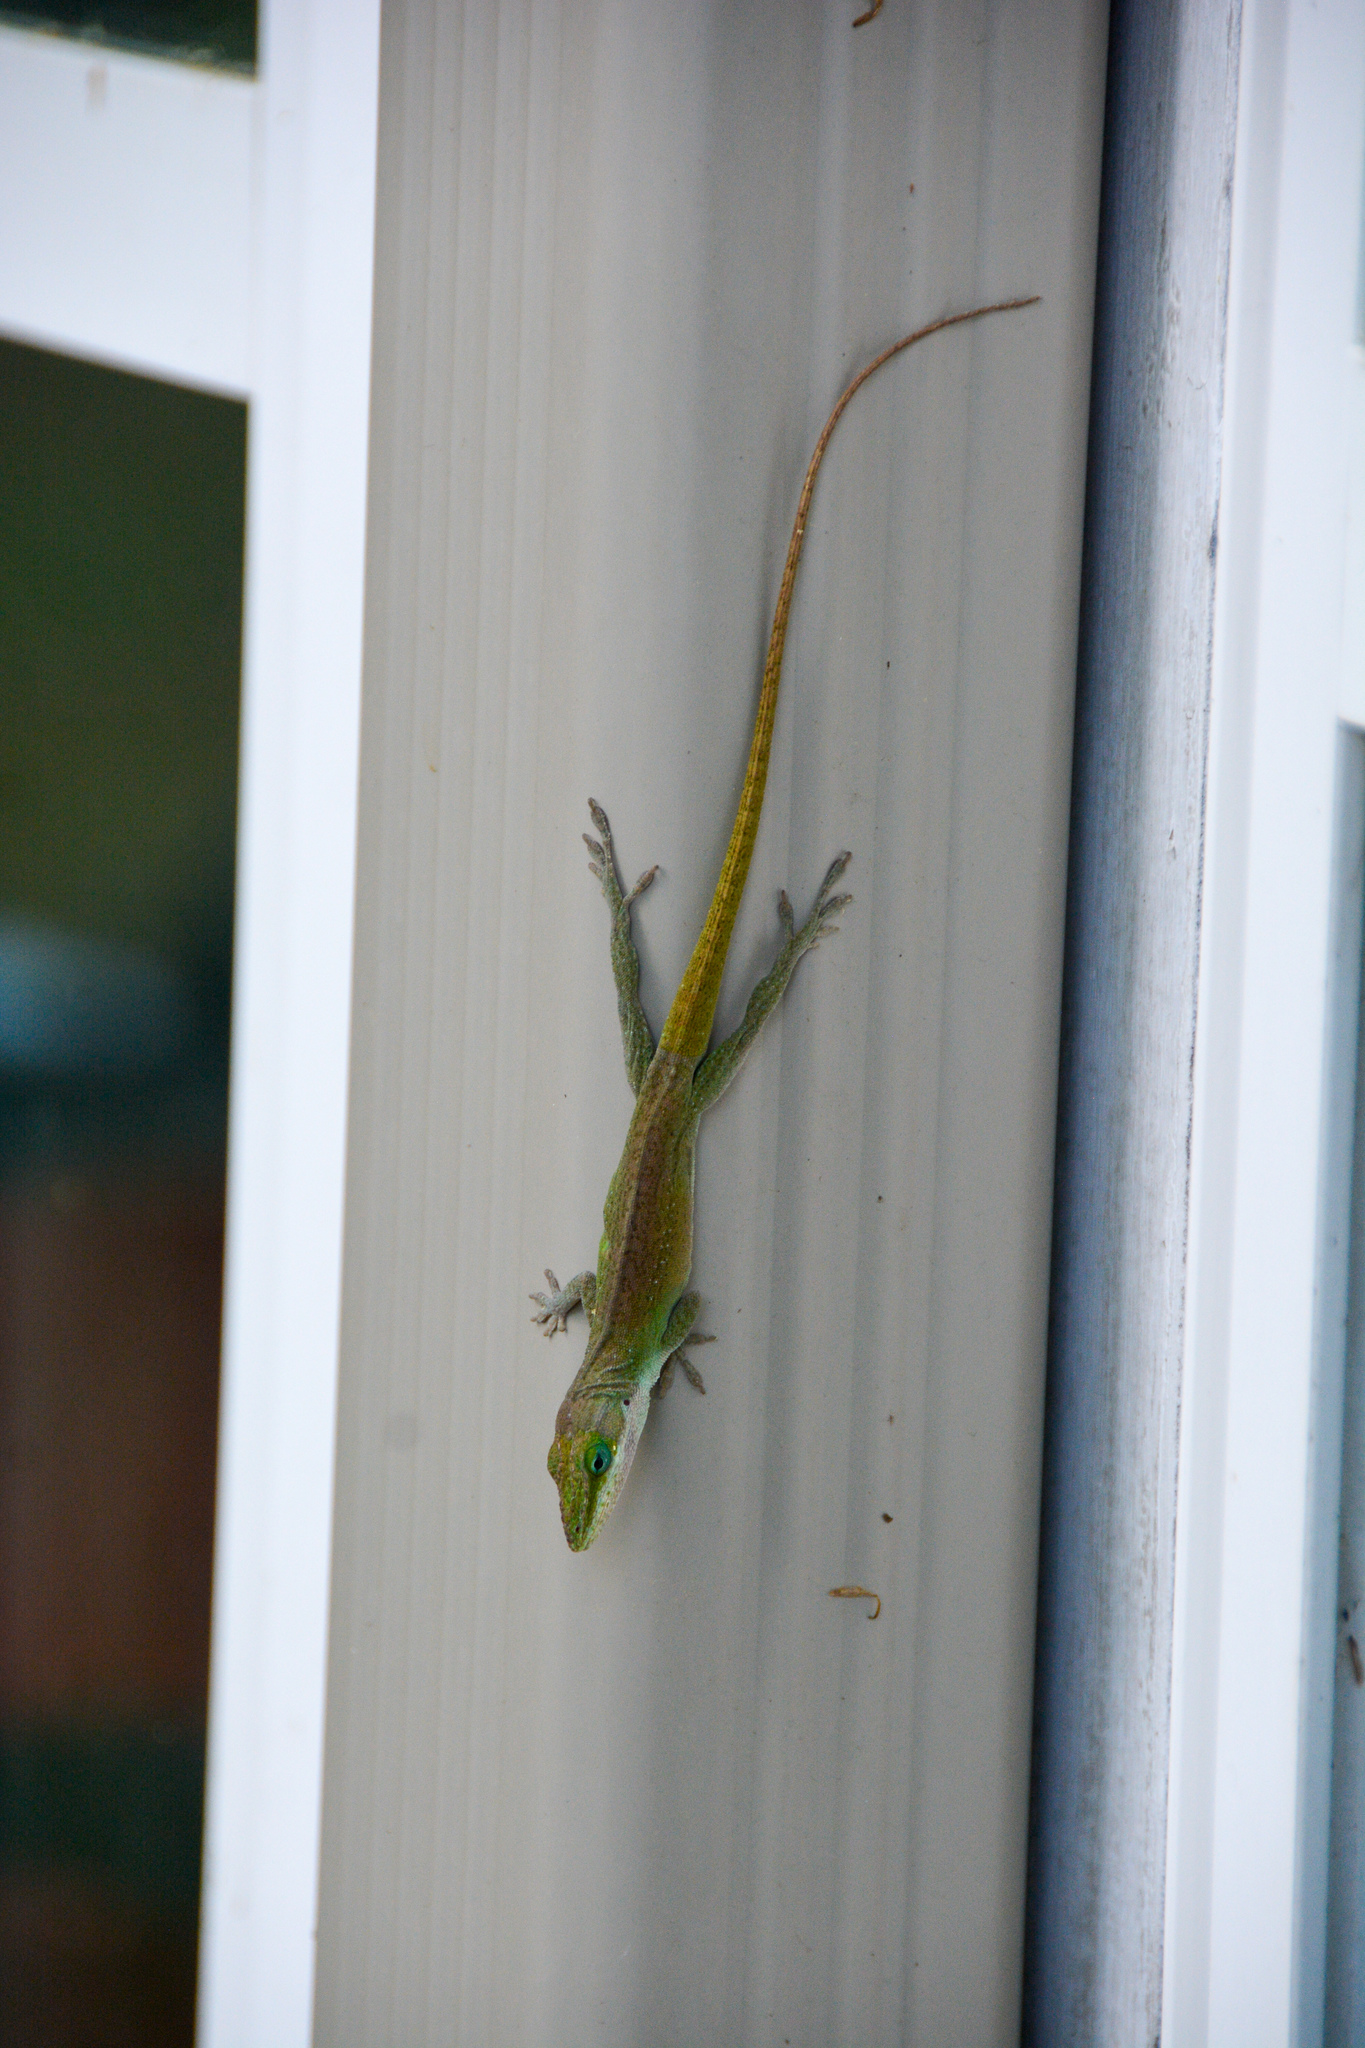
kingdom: Animalia
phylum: Chordata
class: Squamata
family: Dactyloidae
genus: Anolis
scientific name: Anolis carolinensis
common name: Green anole
